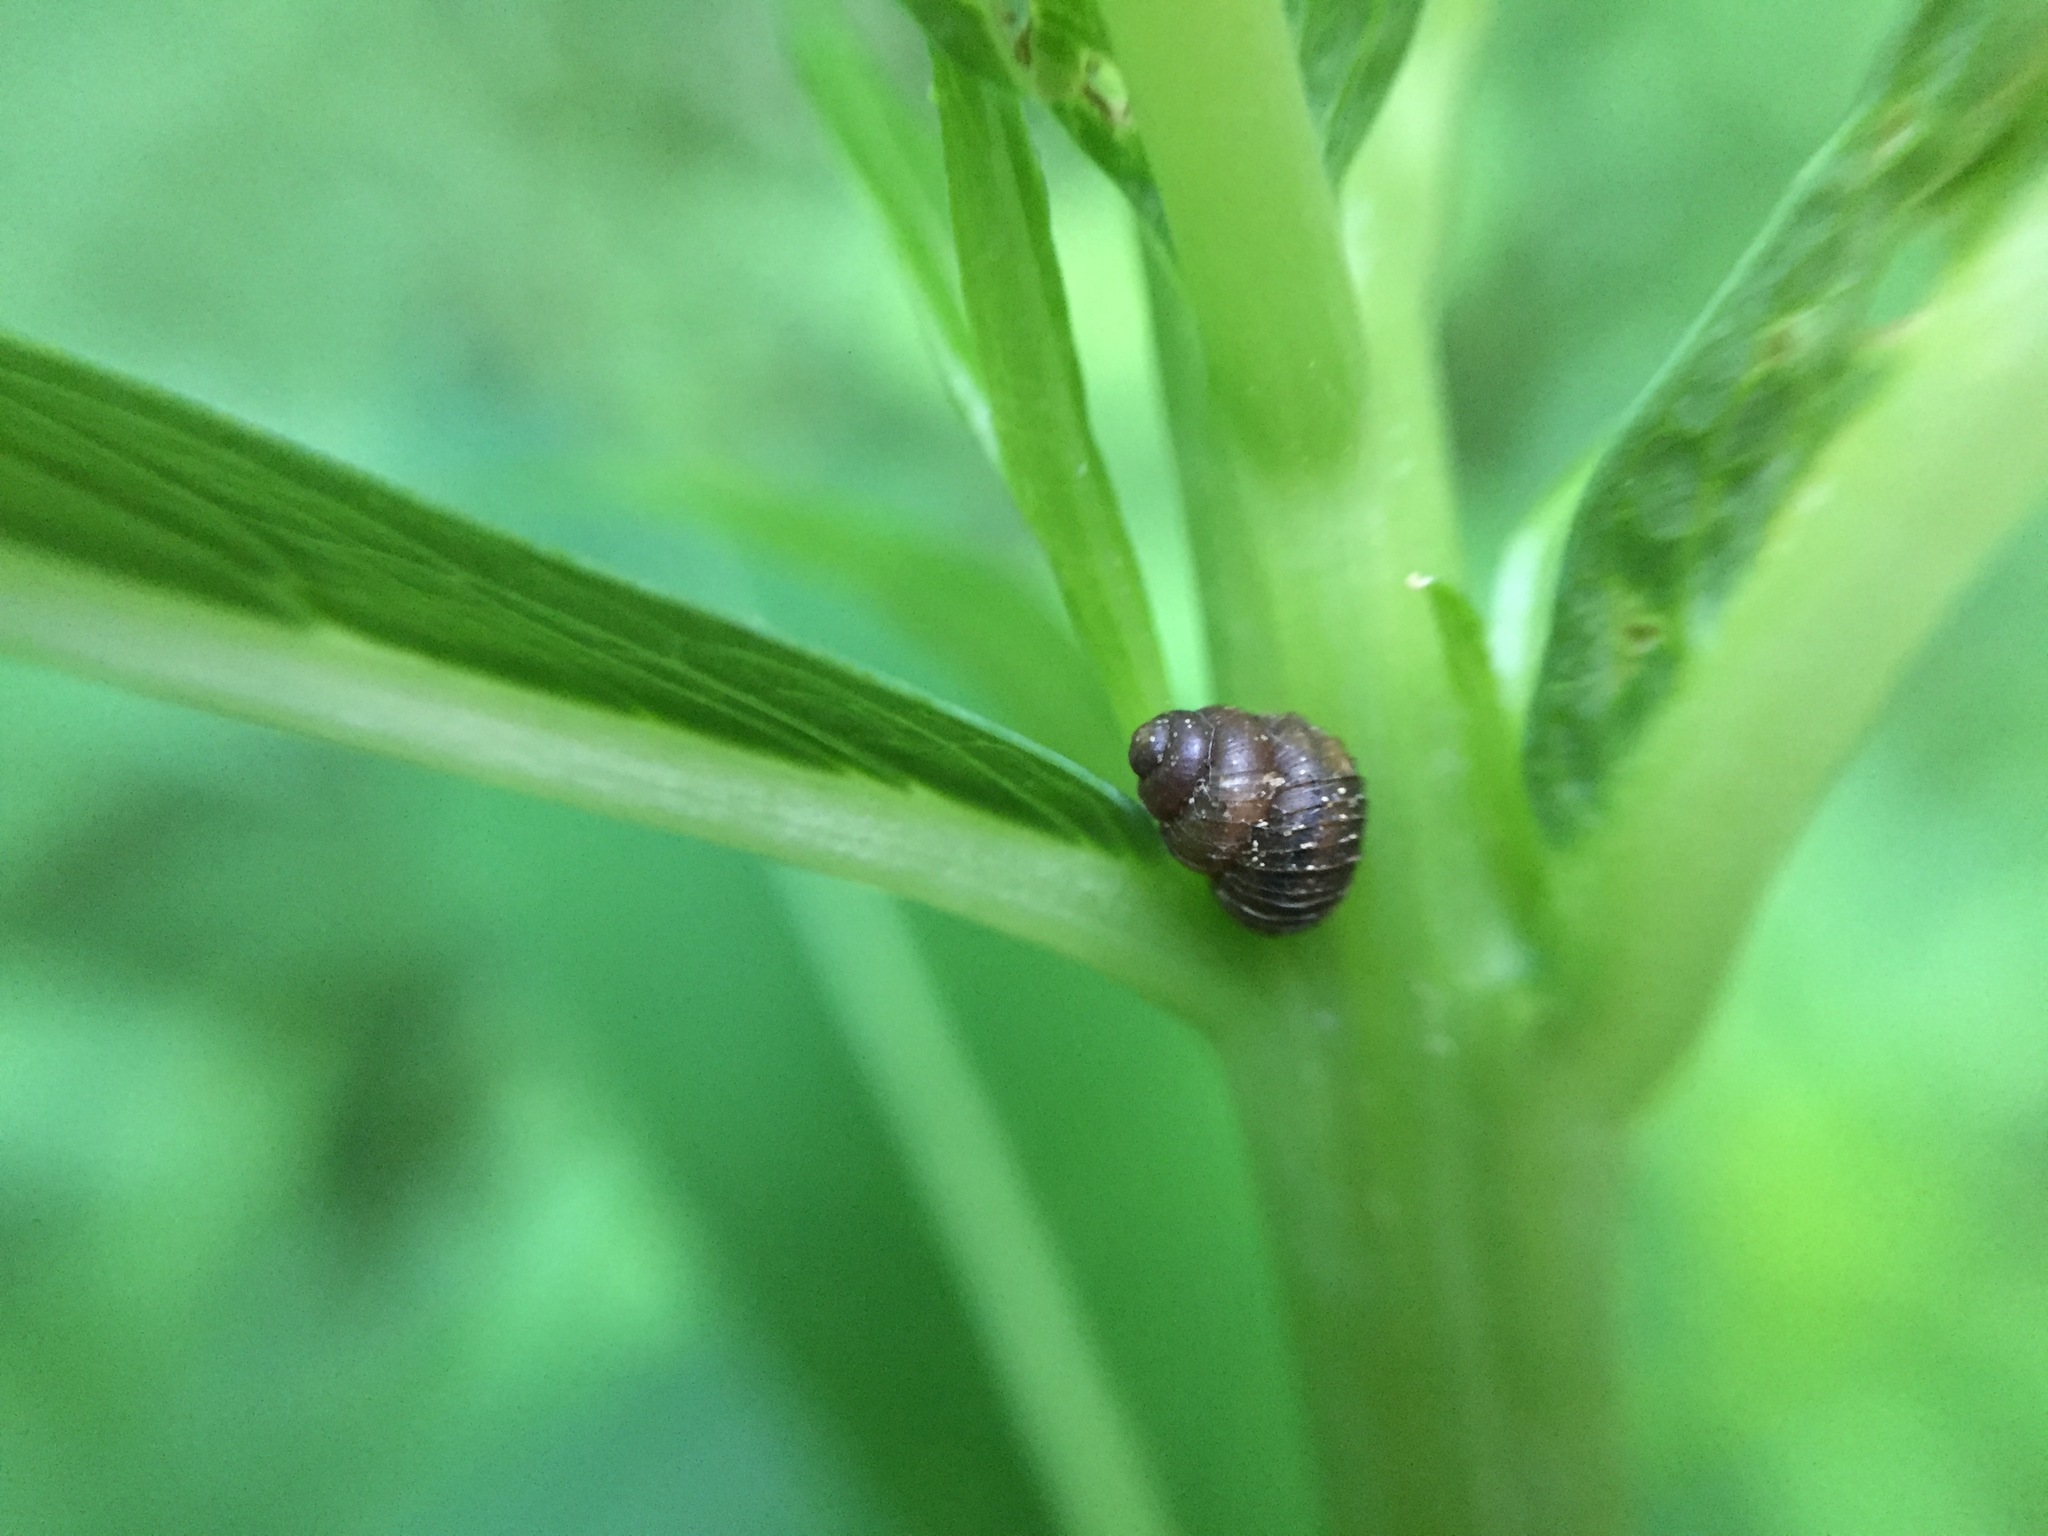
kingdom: Animalia
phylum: Mollusca
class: Gastropoda
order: Stylommatophora
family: Valloniidae
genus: Zoogenetes
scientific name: Zoogenetes harpa
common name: Boreal top
